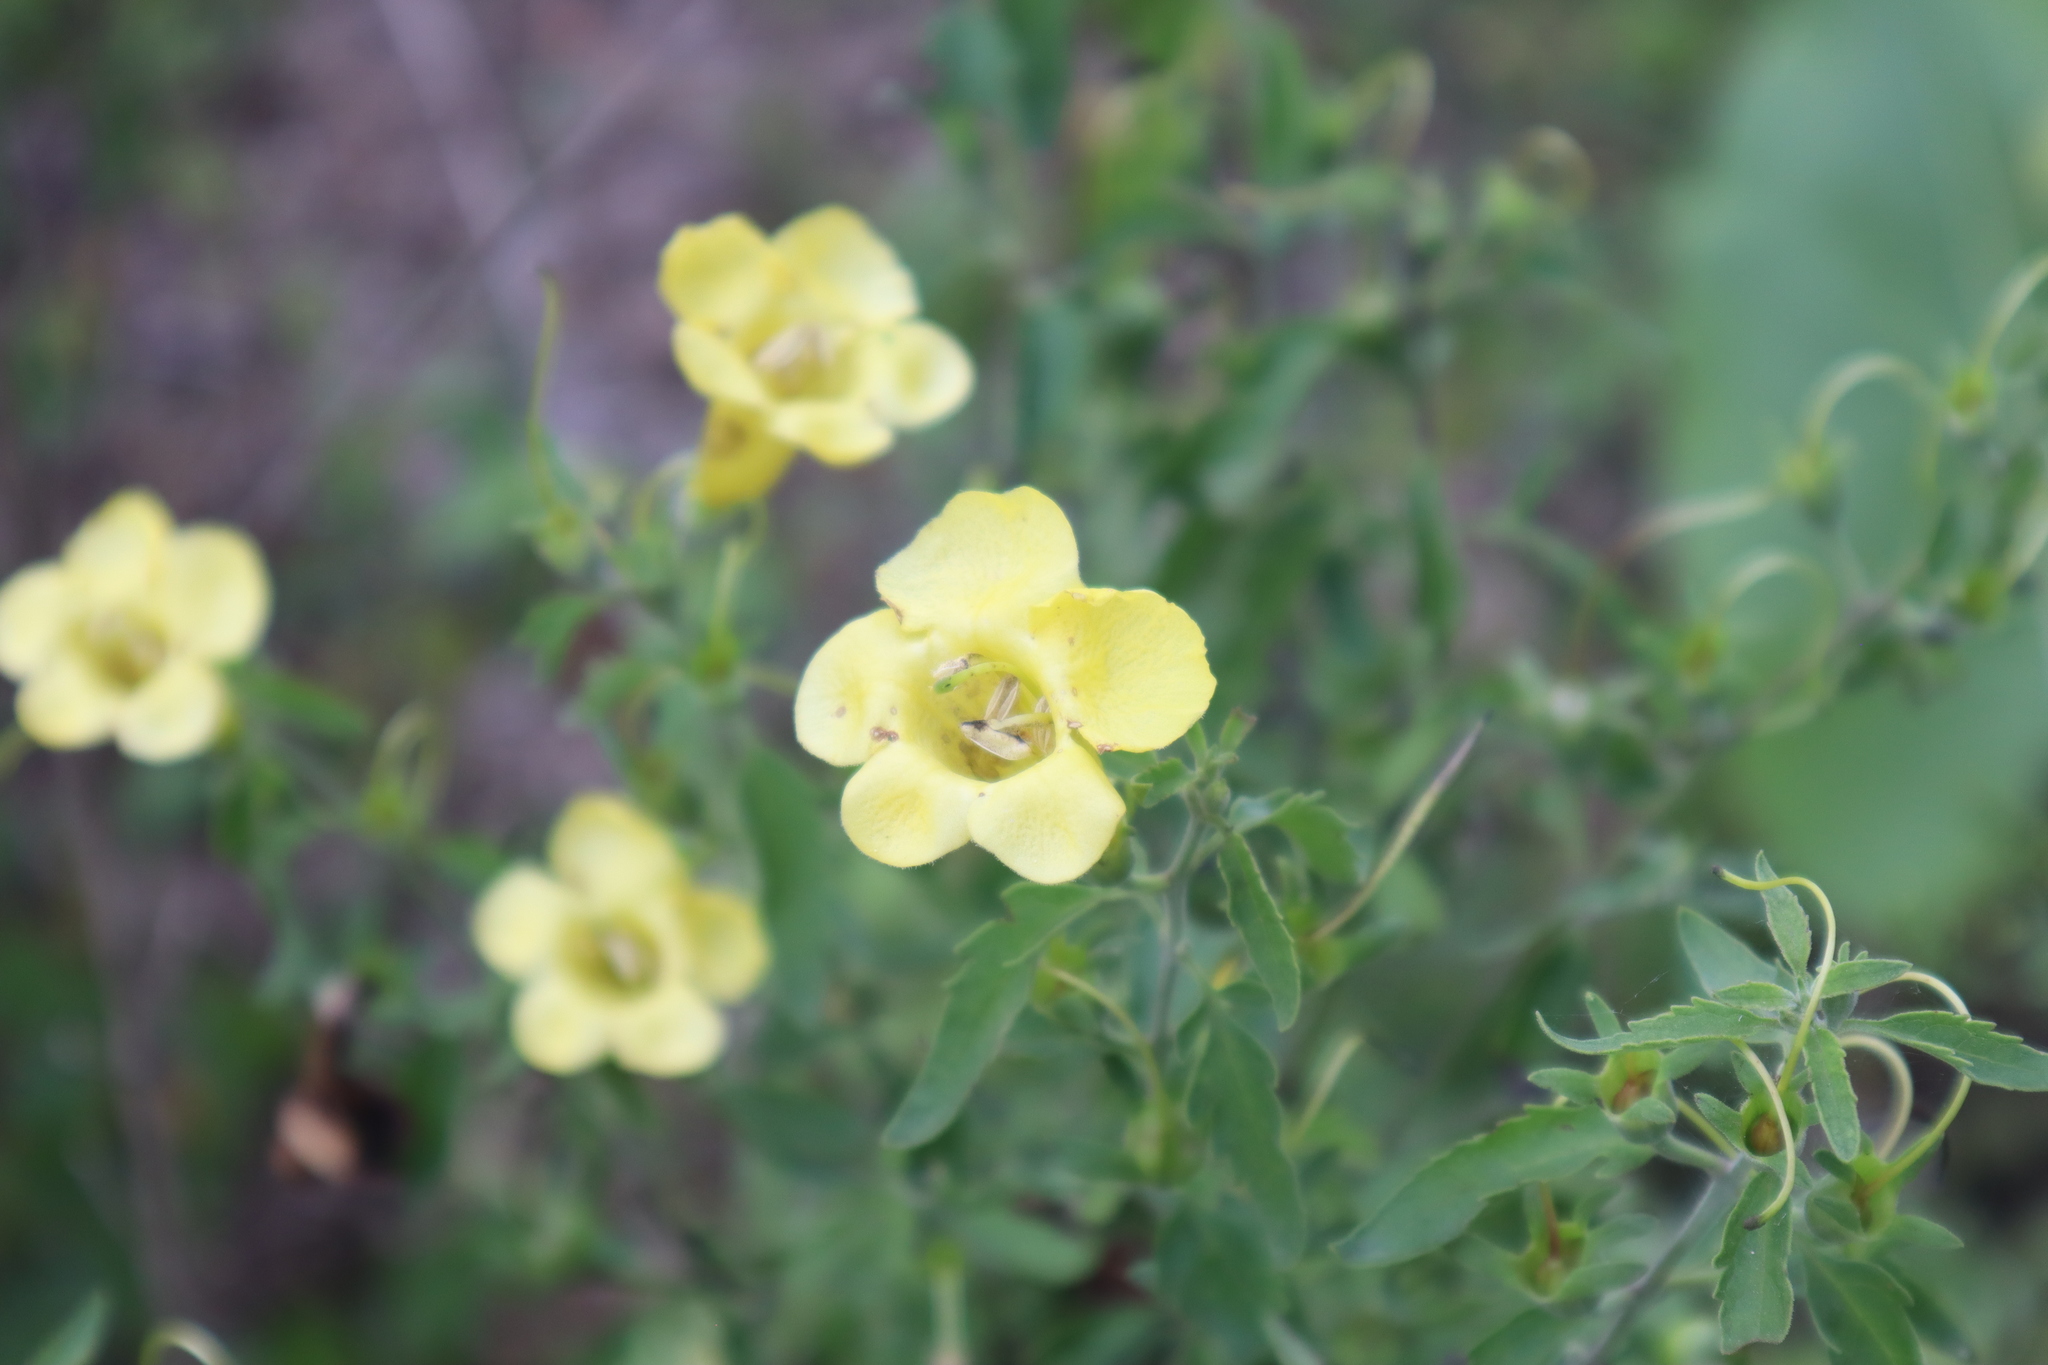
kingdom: Plantae
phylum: Tracheophyta
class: Magnoliopsida
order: Lamiales
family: Orobanchaceae
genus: Aureolaria
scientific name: Aureolaria grandiflora
